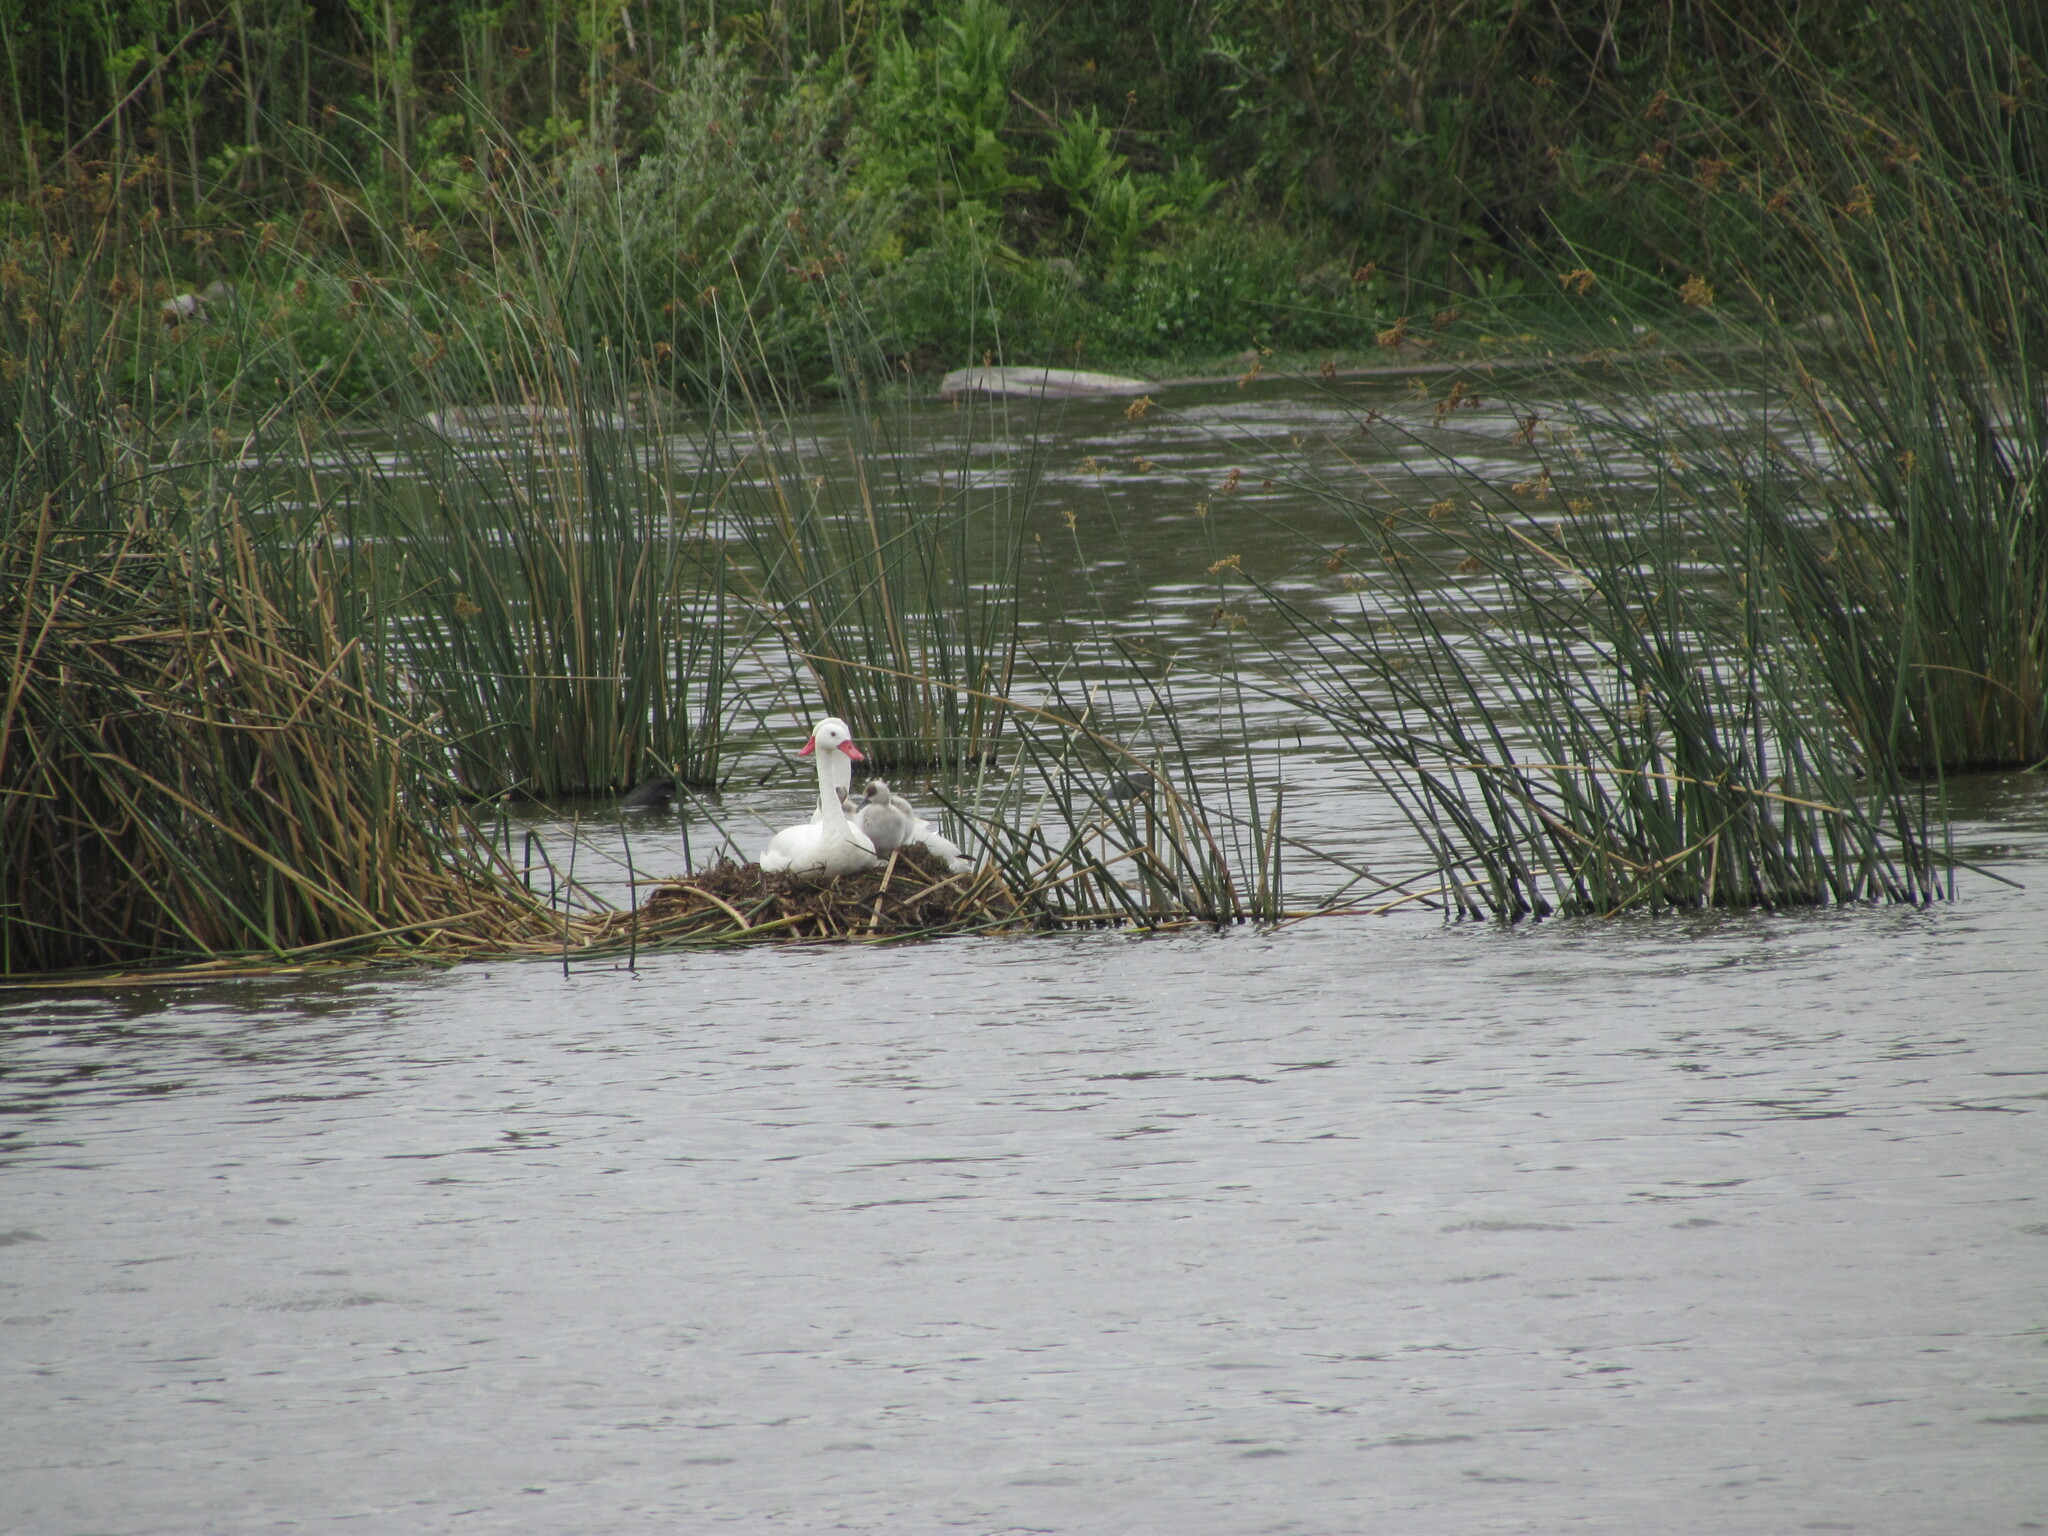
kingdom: Animalia
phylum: Chordata
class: Aves
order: Anseriformes
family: Anatidae
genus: Coscoroba
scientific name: Coscoroba coscoroba
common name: Coscoroba swan
